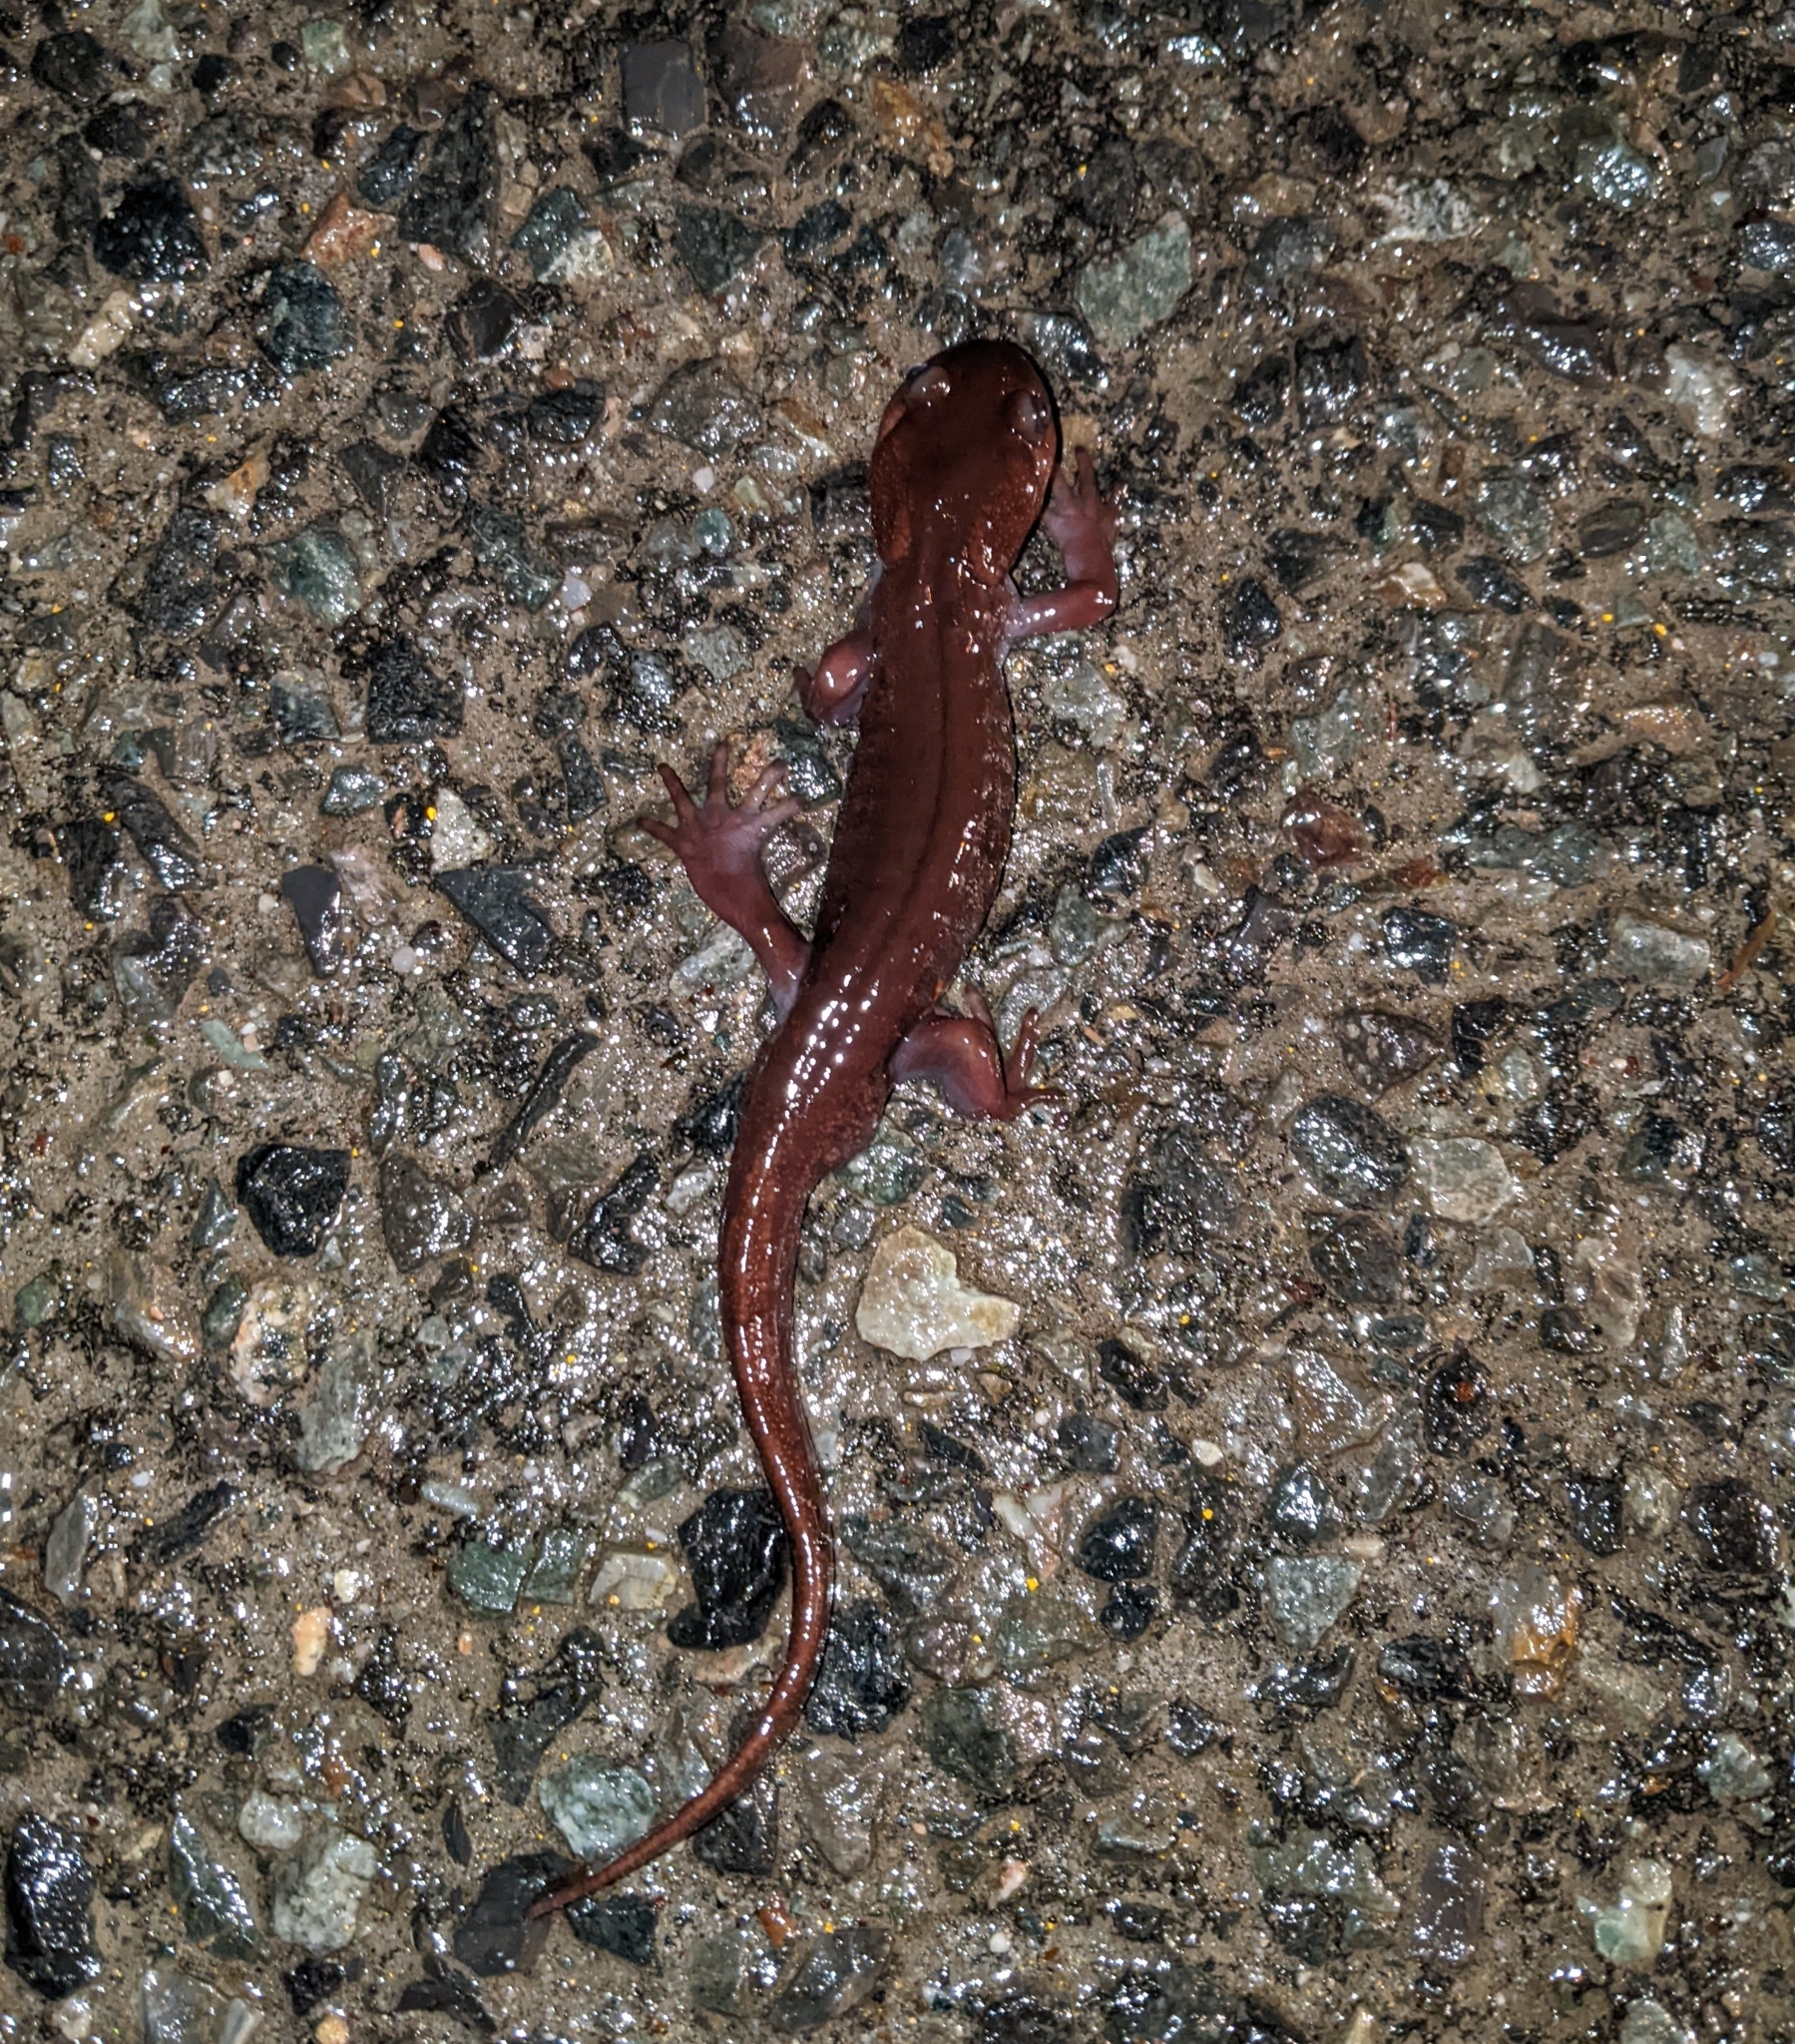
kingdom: Animalia
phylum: Chordata
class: Amphibia
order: Caudata
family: Ambystomatidae
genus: Ambystoma
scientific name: Ambystoma gracile
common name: Northwestern salamander
